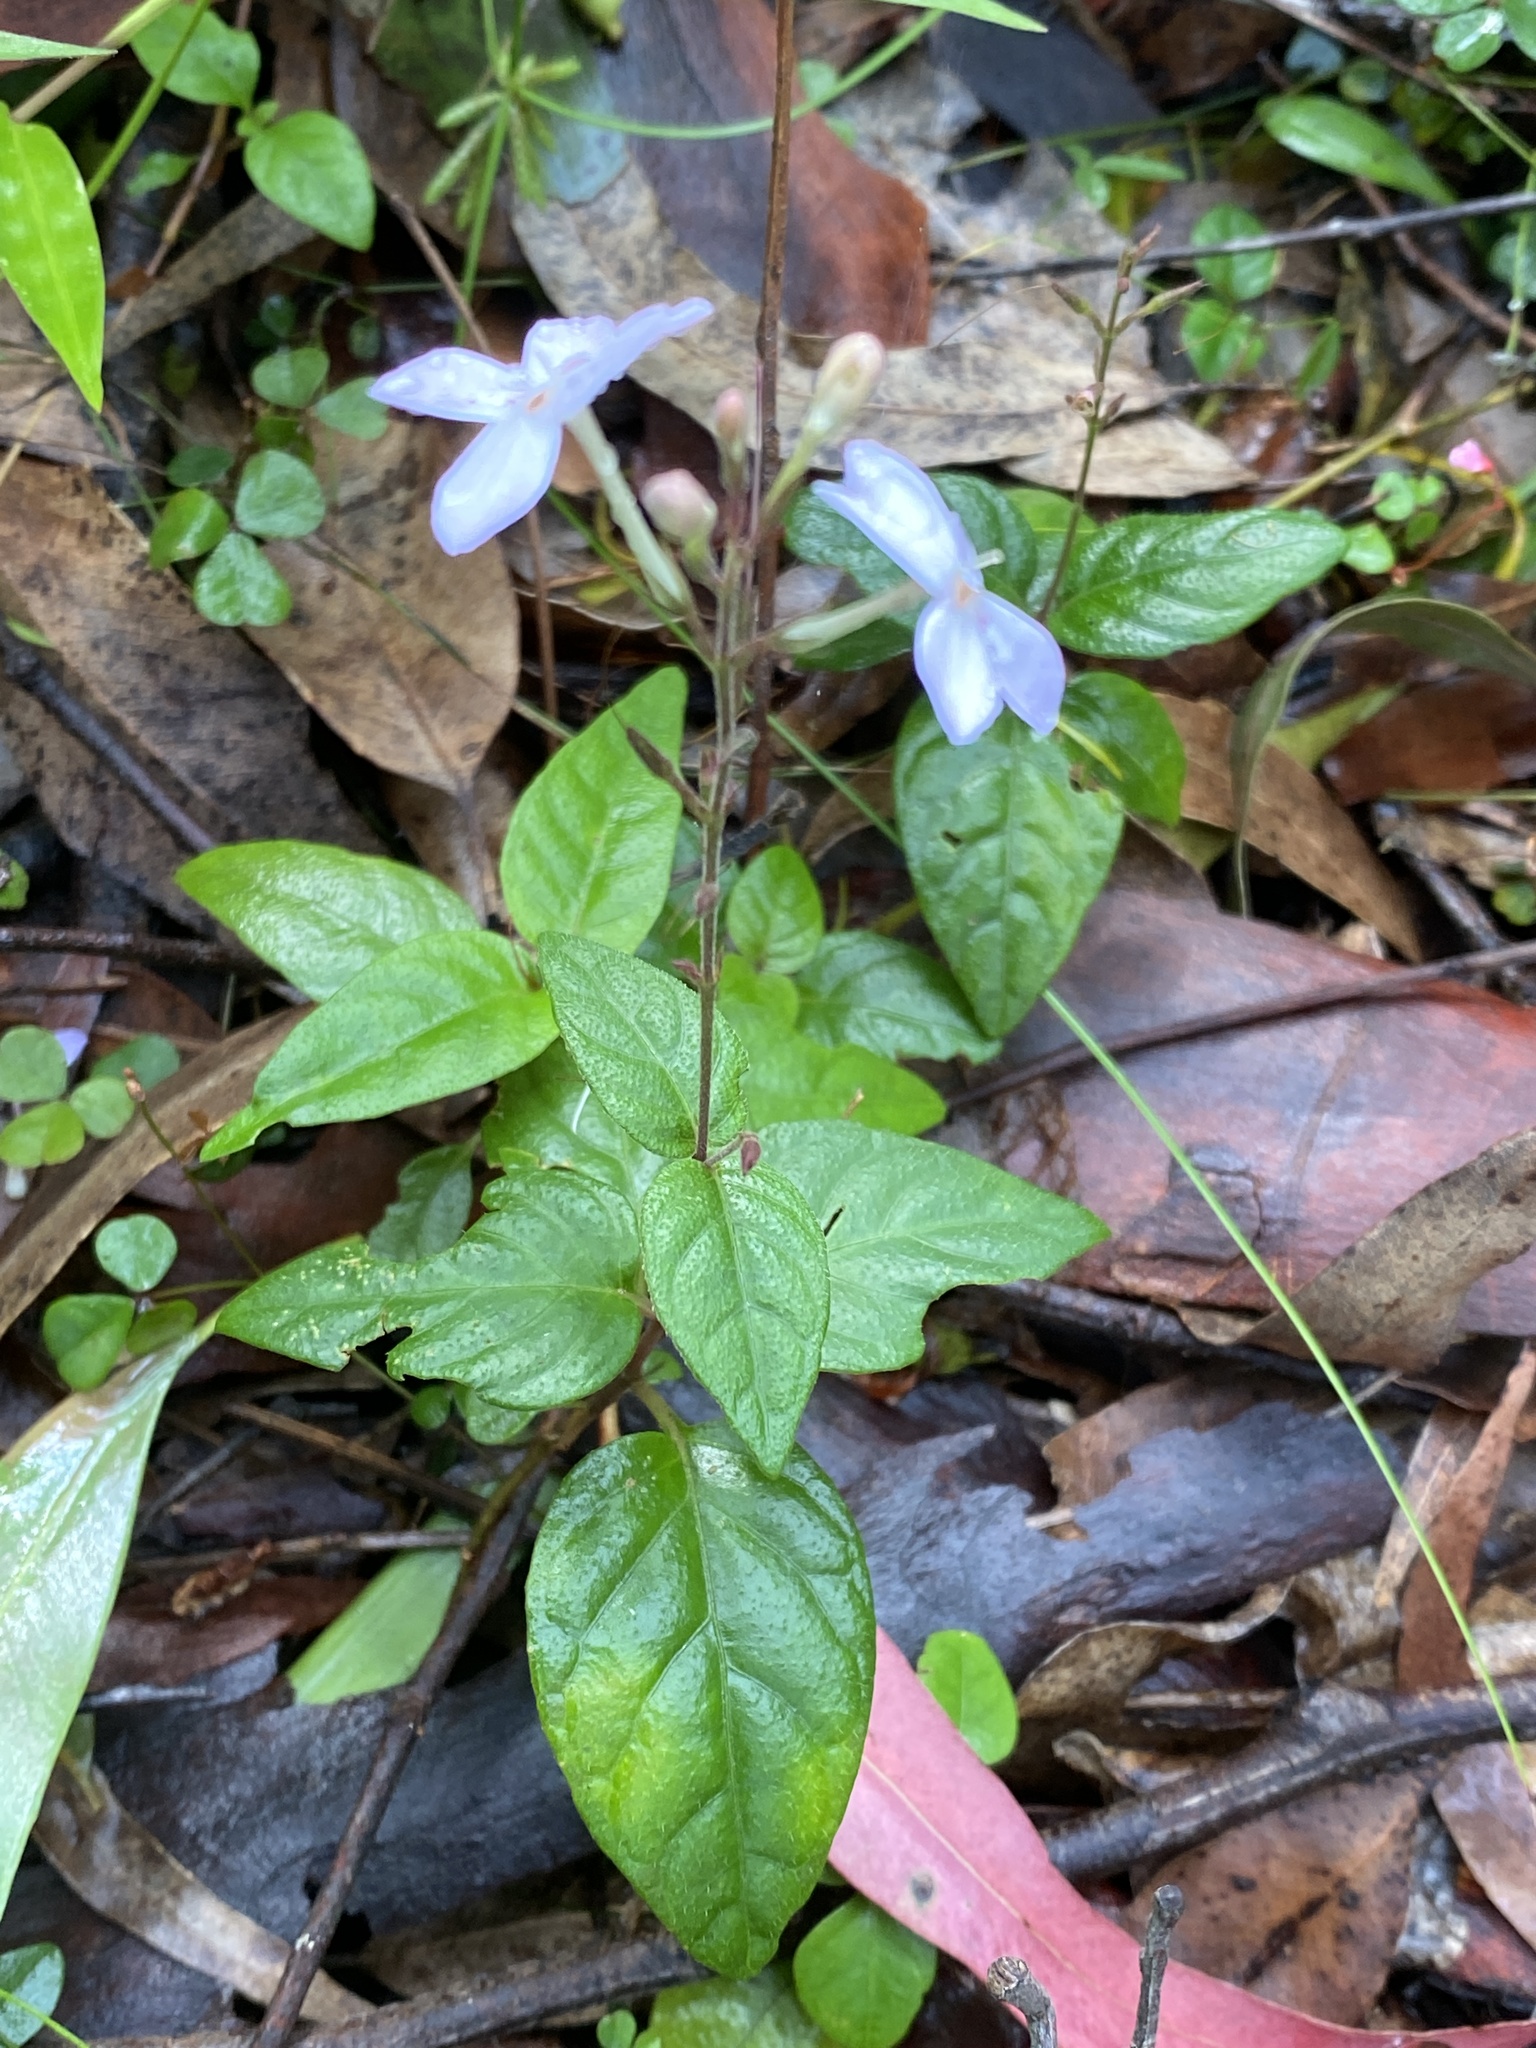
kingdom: Plantae
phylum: Tracheophyta
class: Magnoliopsida
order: Lamiales
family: Acanthaceae
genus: Pseuderanthemum
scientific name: Pseuderanthemum variabile
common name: Night and afternoon
